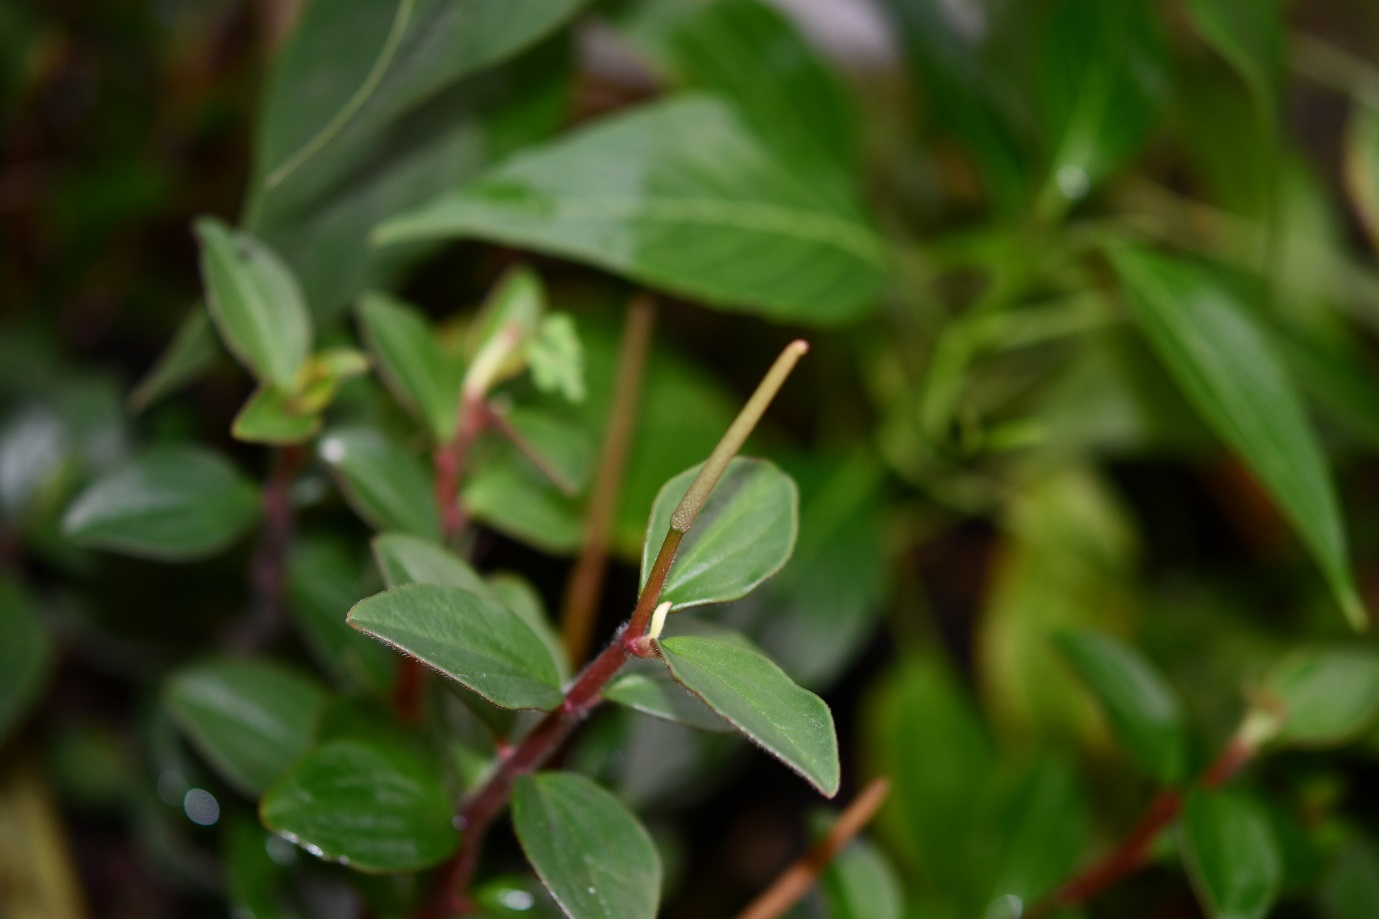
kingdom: Plantae
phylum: Tracheophyta
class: Magnoliopsida
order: Piperales
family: Piperaceae
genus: Peperomia
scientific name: Peperomia consoquitlana
